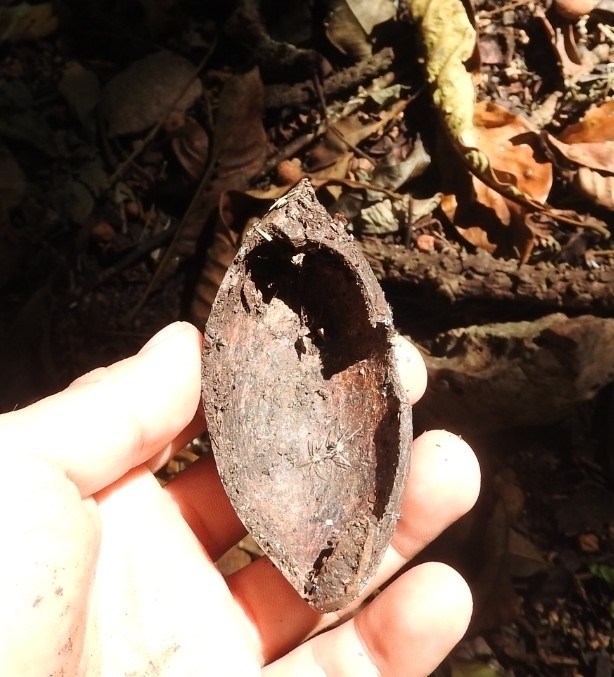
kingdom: Plantae
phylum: Tracheophyta
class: Magnoliopsida
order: Ericales
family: Sapotaceae
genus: Pouteria
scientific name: Pouteria sapota
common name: Mamey
